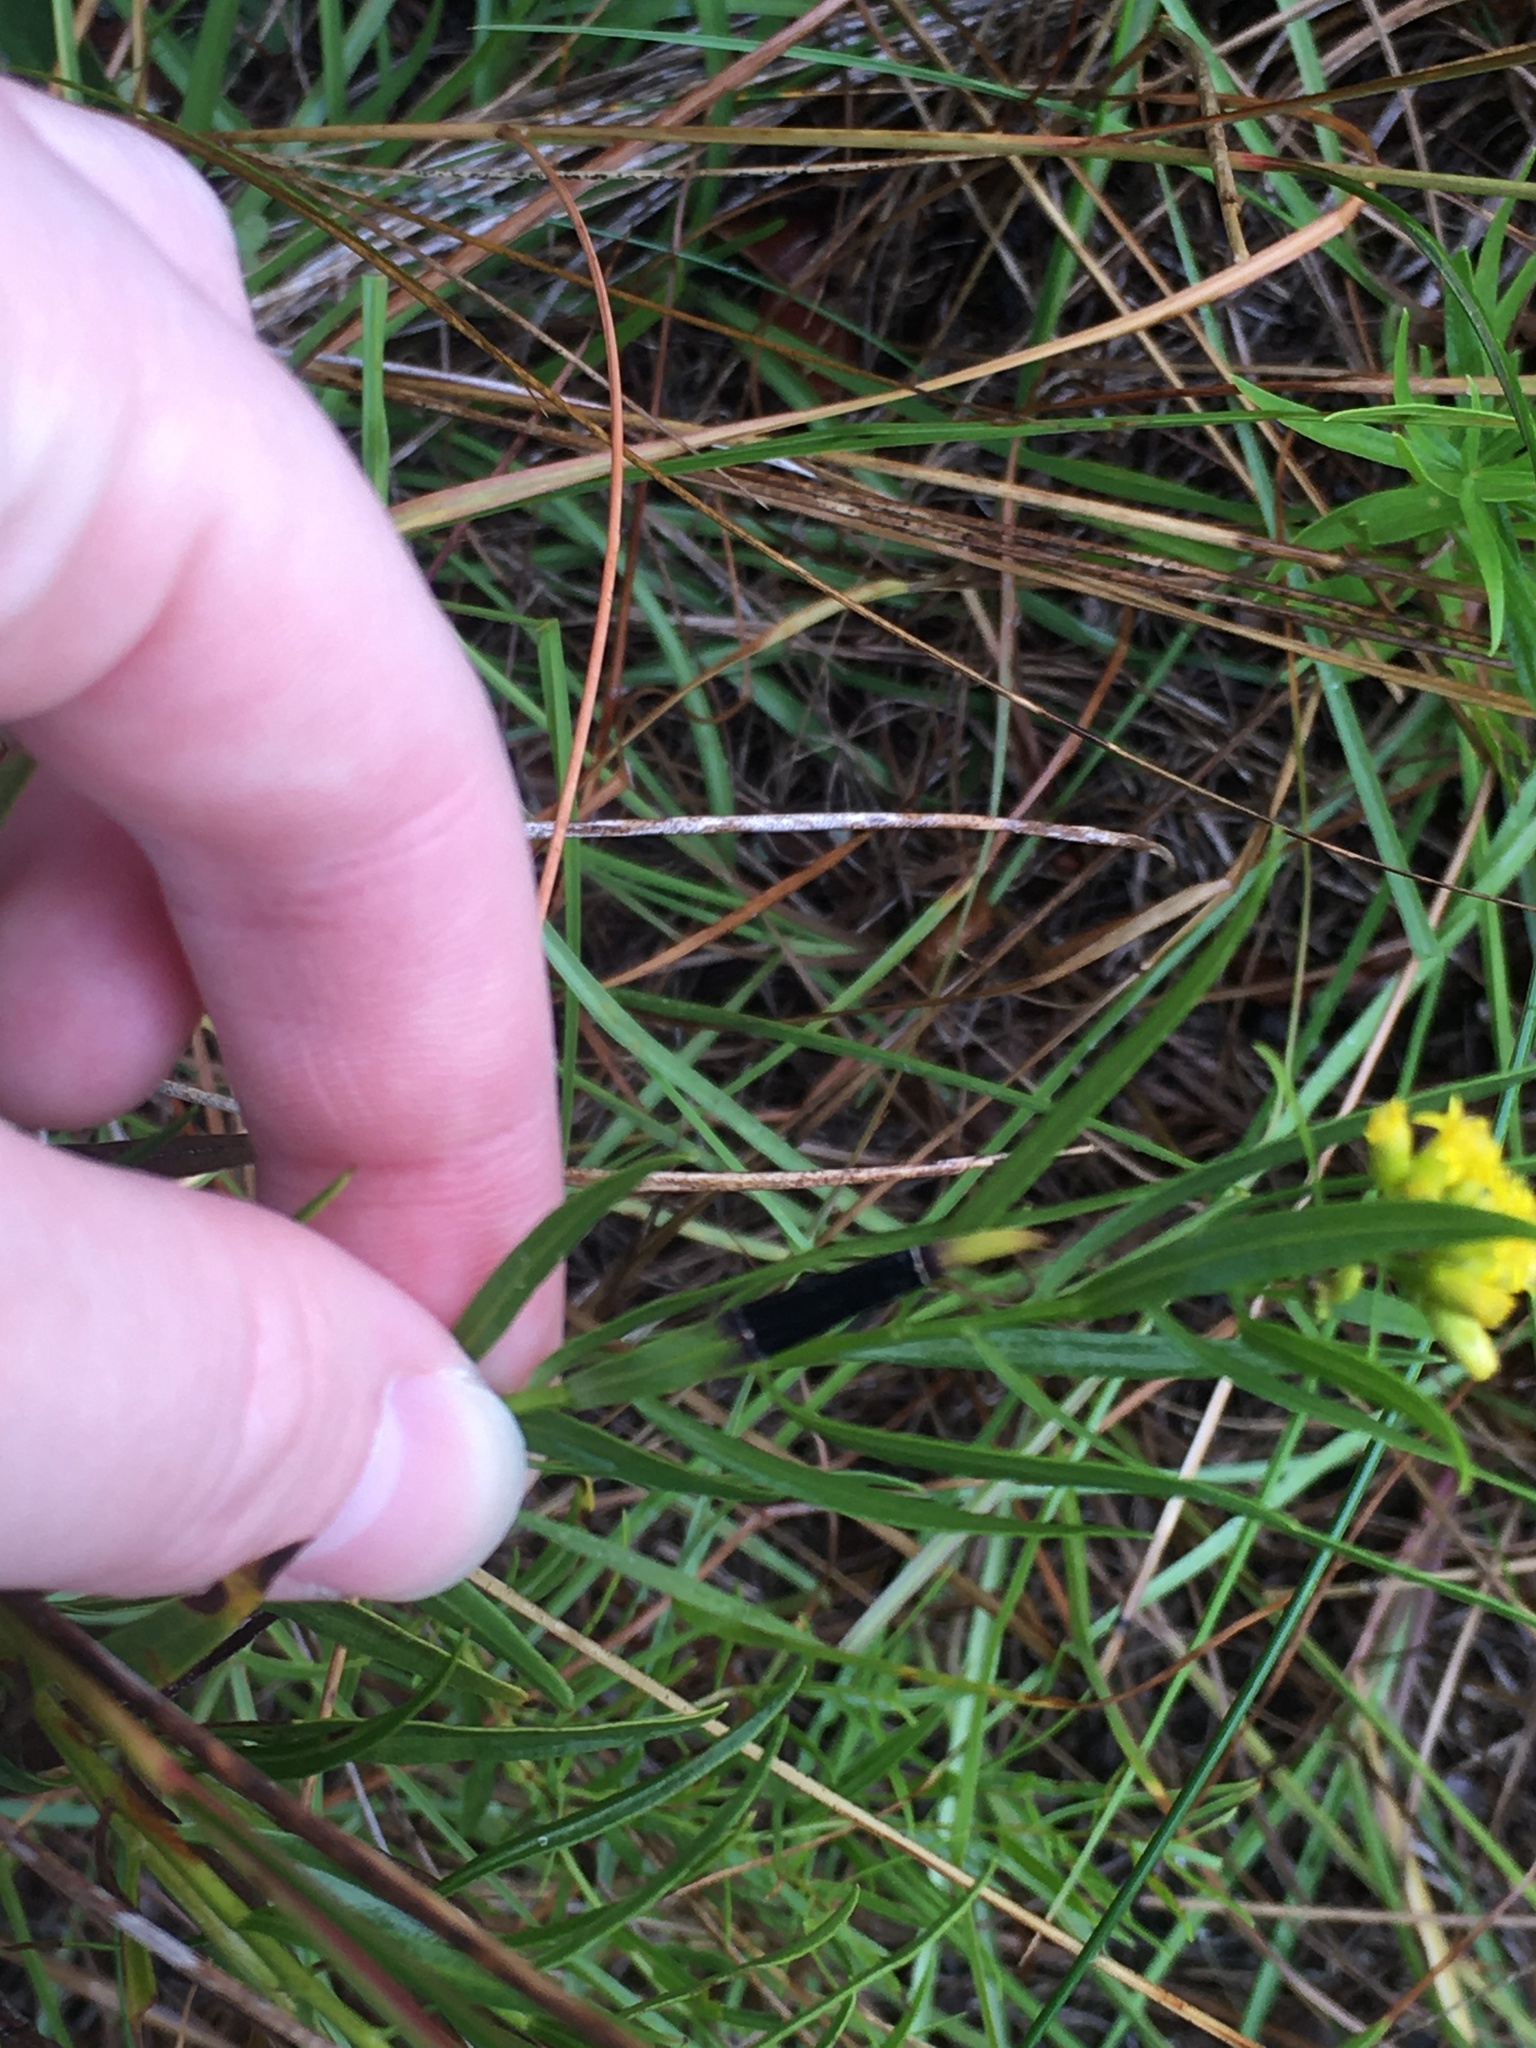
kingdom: Animalia
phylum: Arthropoda
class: Insecta
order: Diptera
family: Cecidomyiidae
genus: Asteromyia
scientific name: Asteromyia euthamiae
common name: Euthamia leaf gall midge
